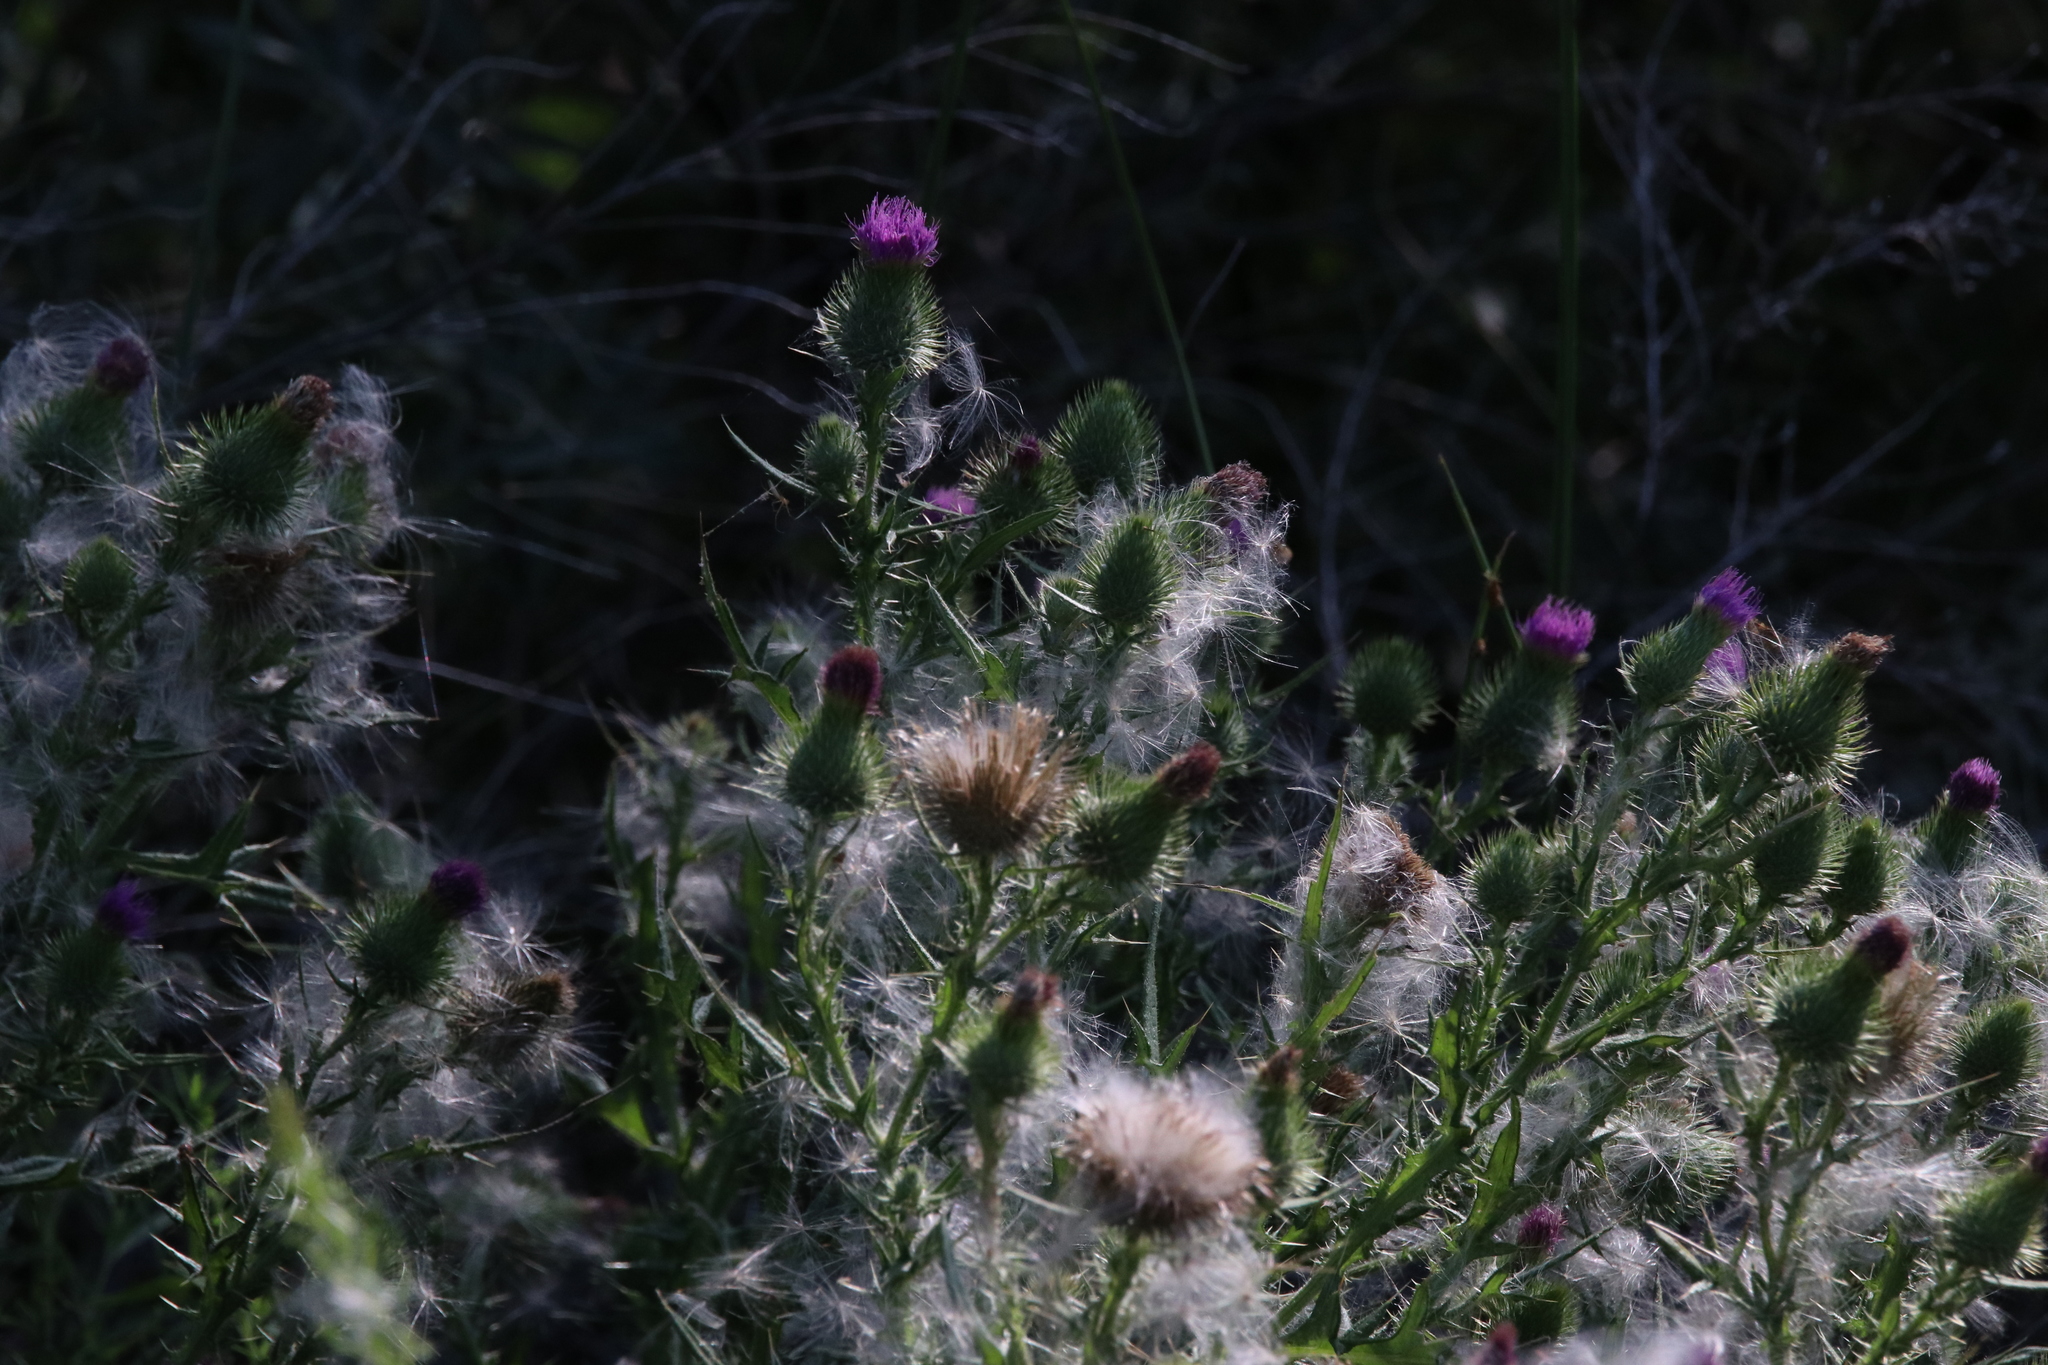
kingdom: Plantae
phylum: Tracheophyta
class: Magnoliopsida
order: Asterales
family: Asteraceae
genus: Cirsium
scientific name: Cirsium vulgare
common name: Bull thistle
